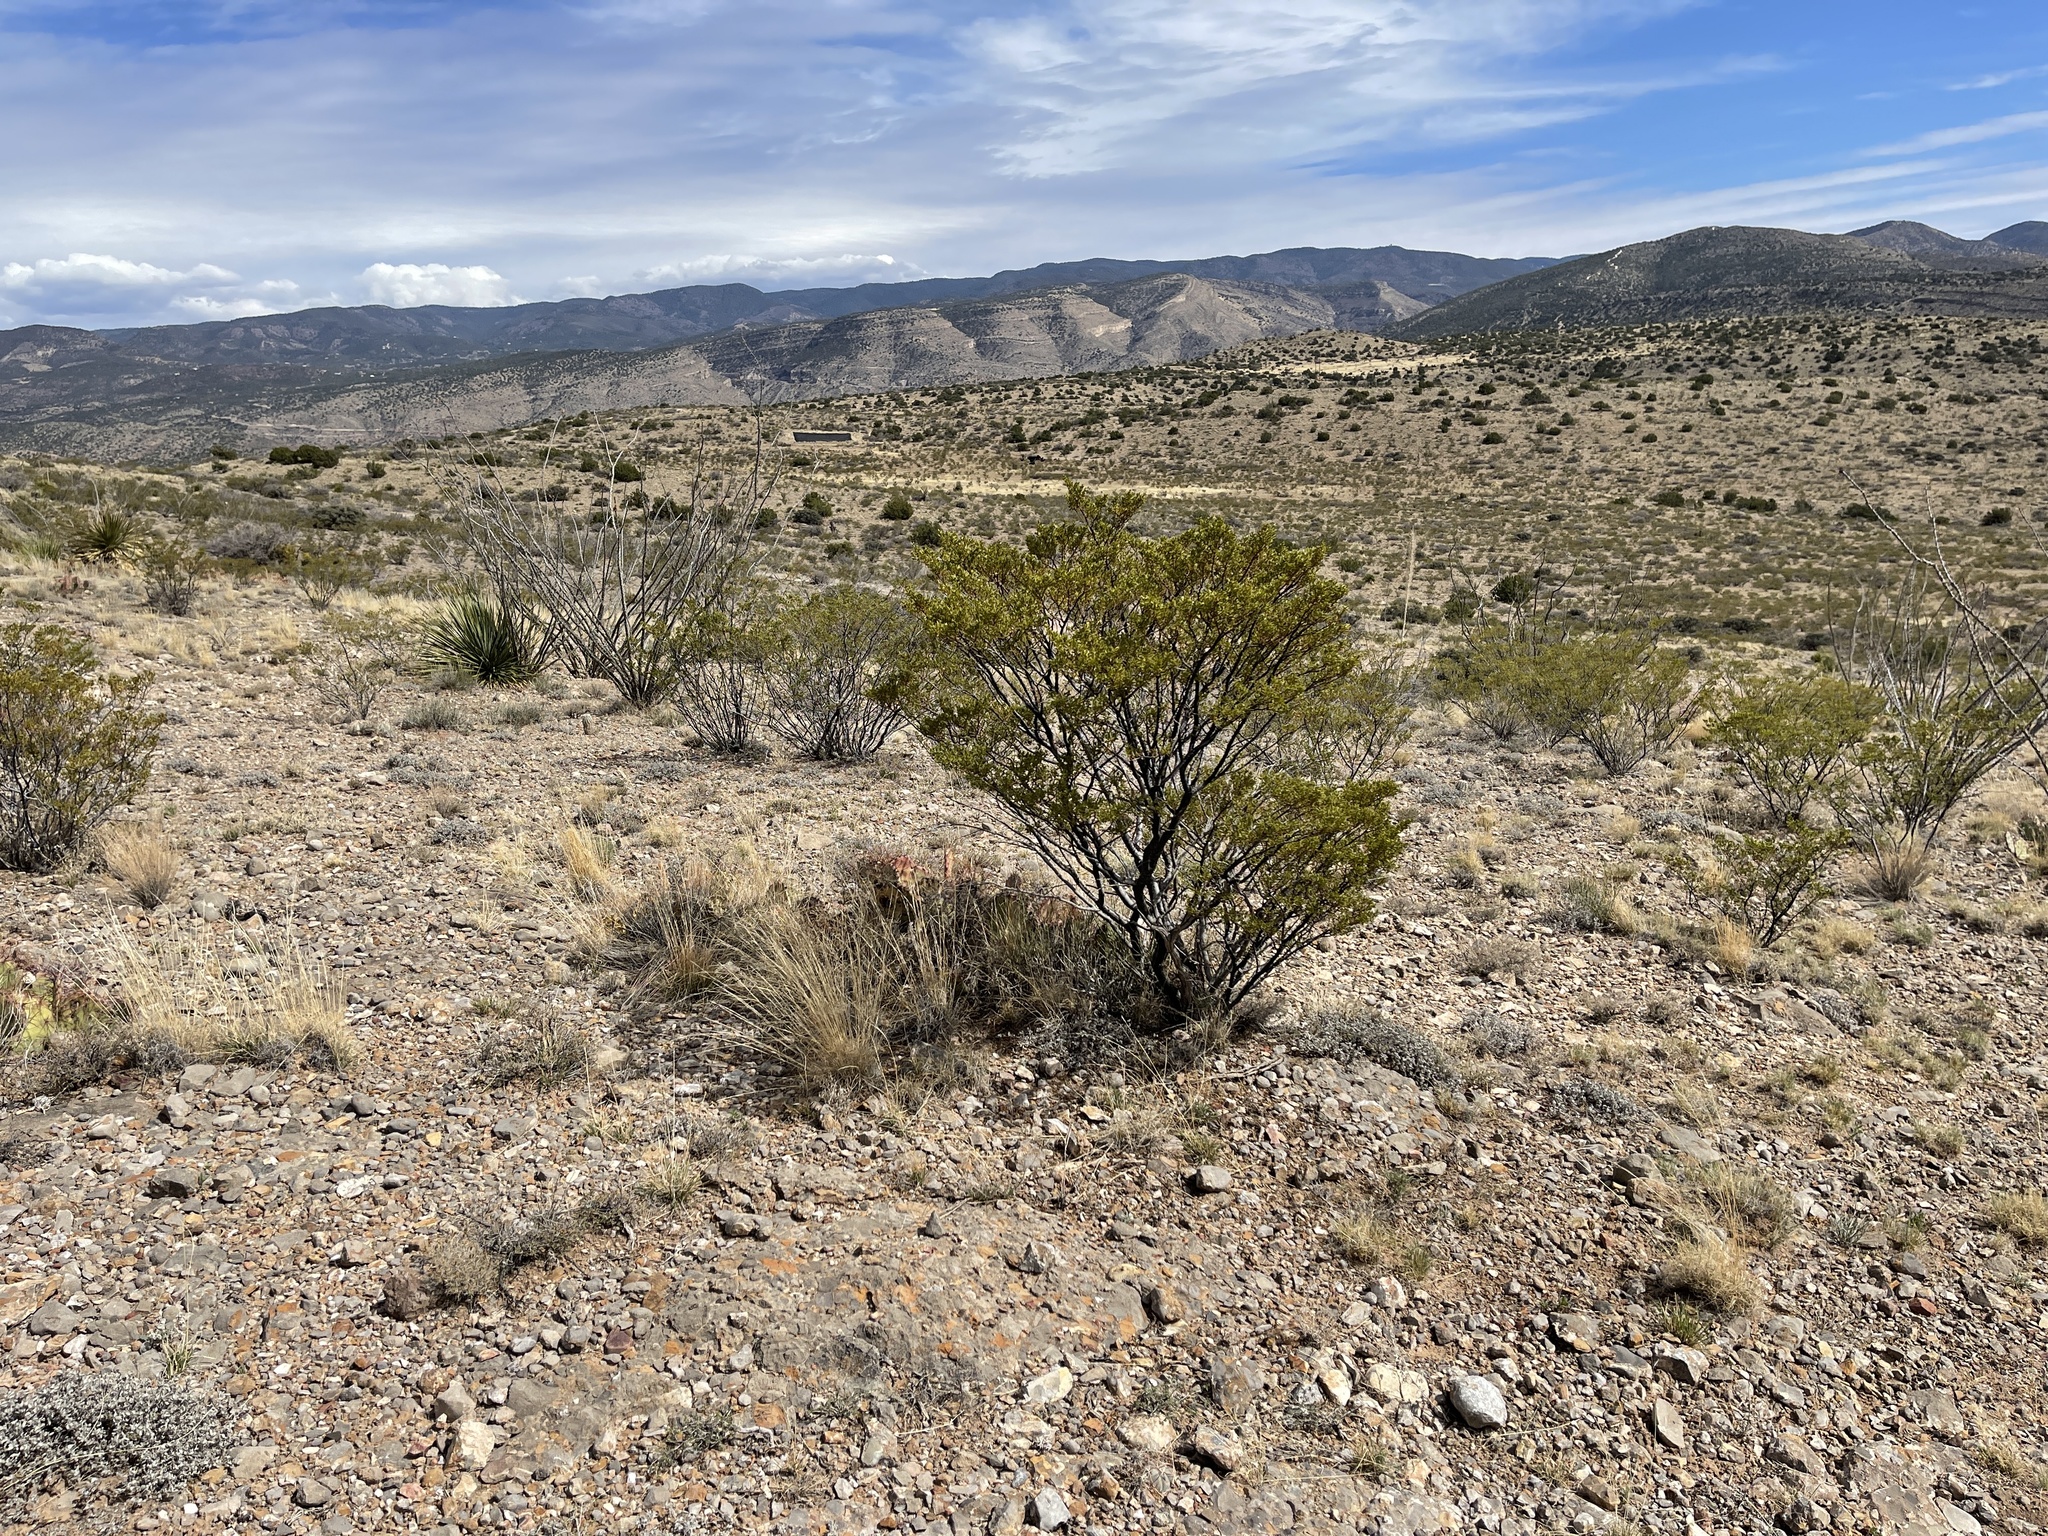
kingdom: Plantae
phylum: Tracheophyta
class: Magnoliopsida
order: Zygophyllales
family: Zygophyllaceae
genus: Larrea
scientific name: Larrea tridentata
